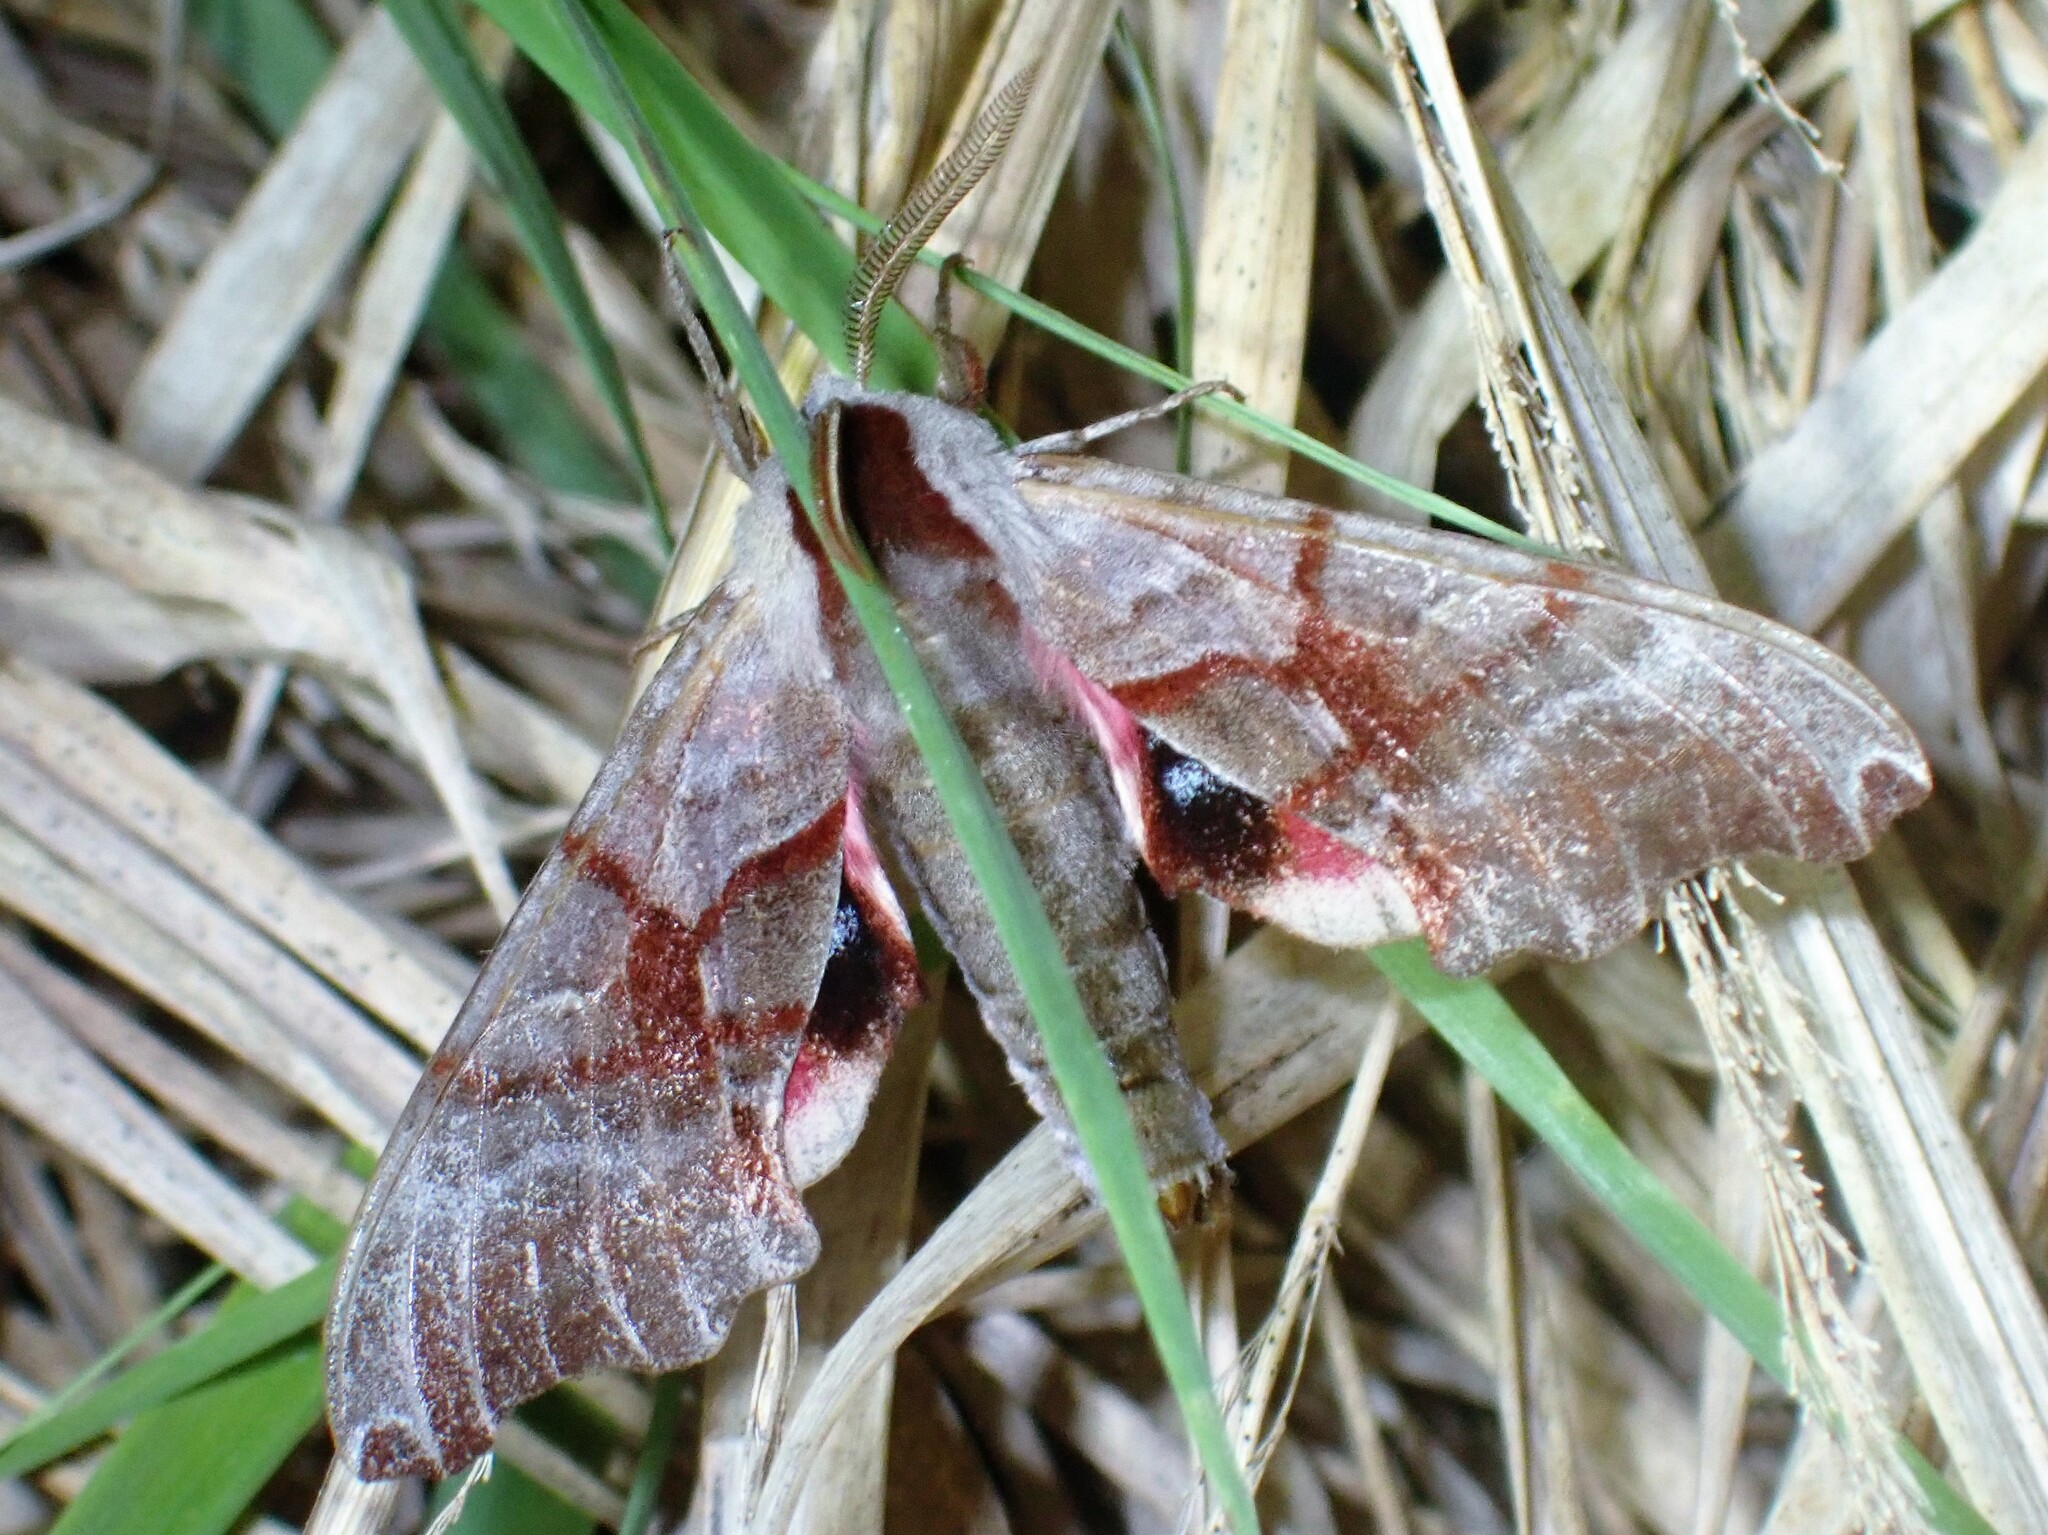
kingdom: Animalia
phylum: Arthropoda
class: Insecta
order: Lepidoptera
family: Sphingidae
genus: Smerinthus
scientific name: Smerinthus jamaicensis
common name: Twin spotted sphinx
